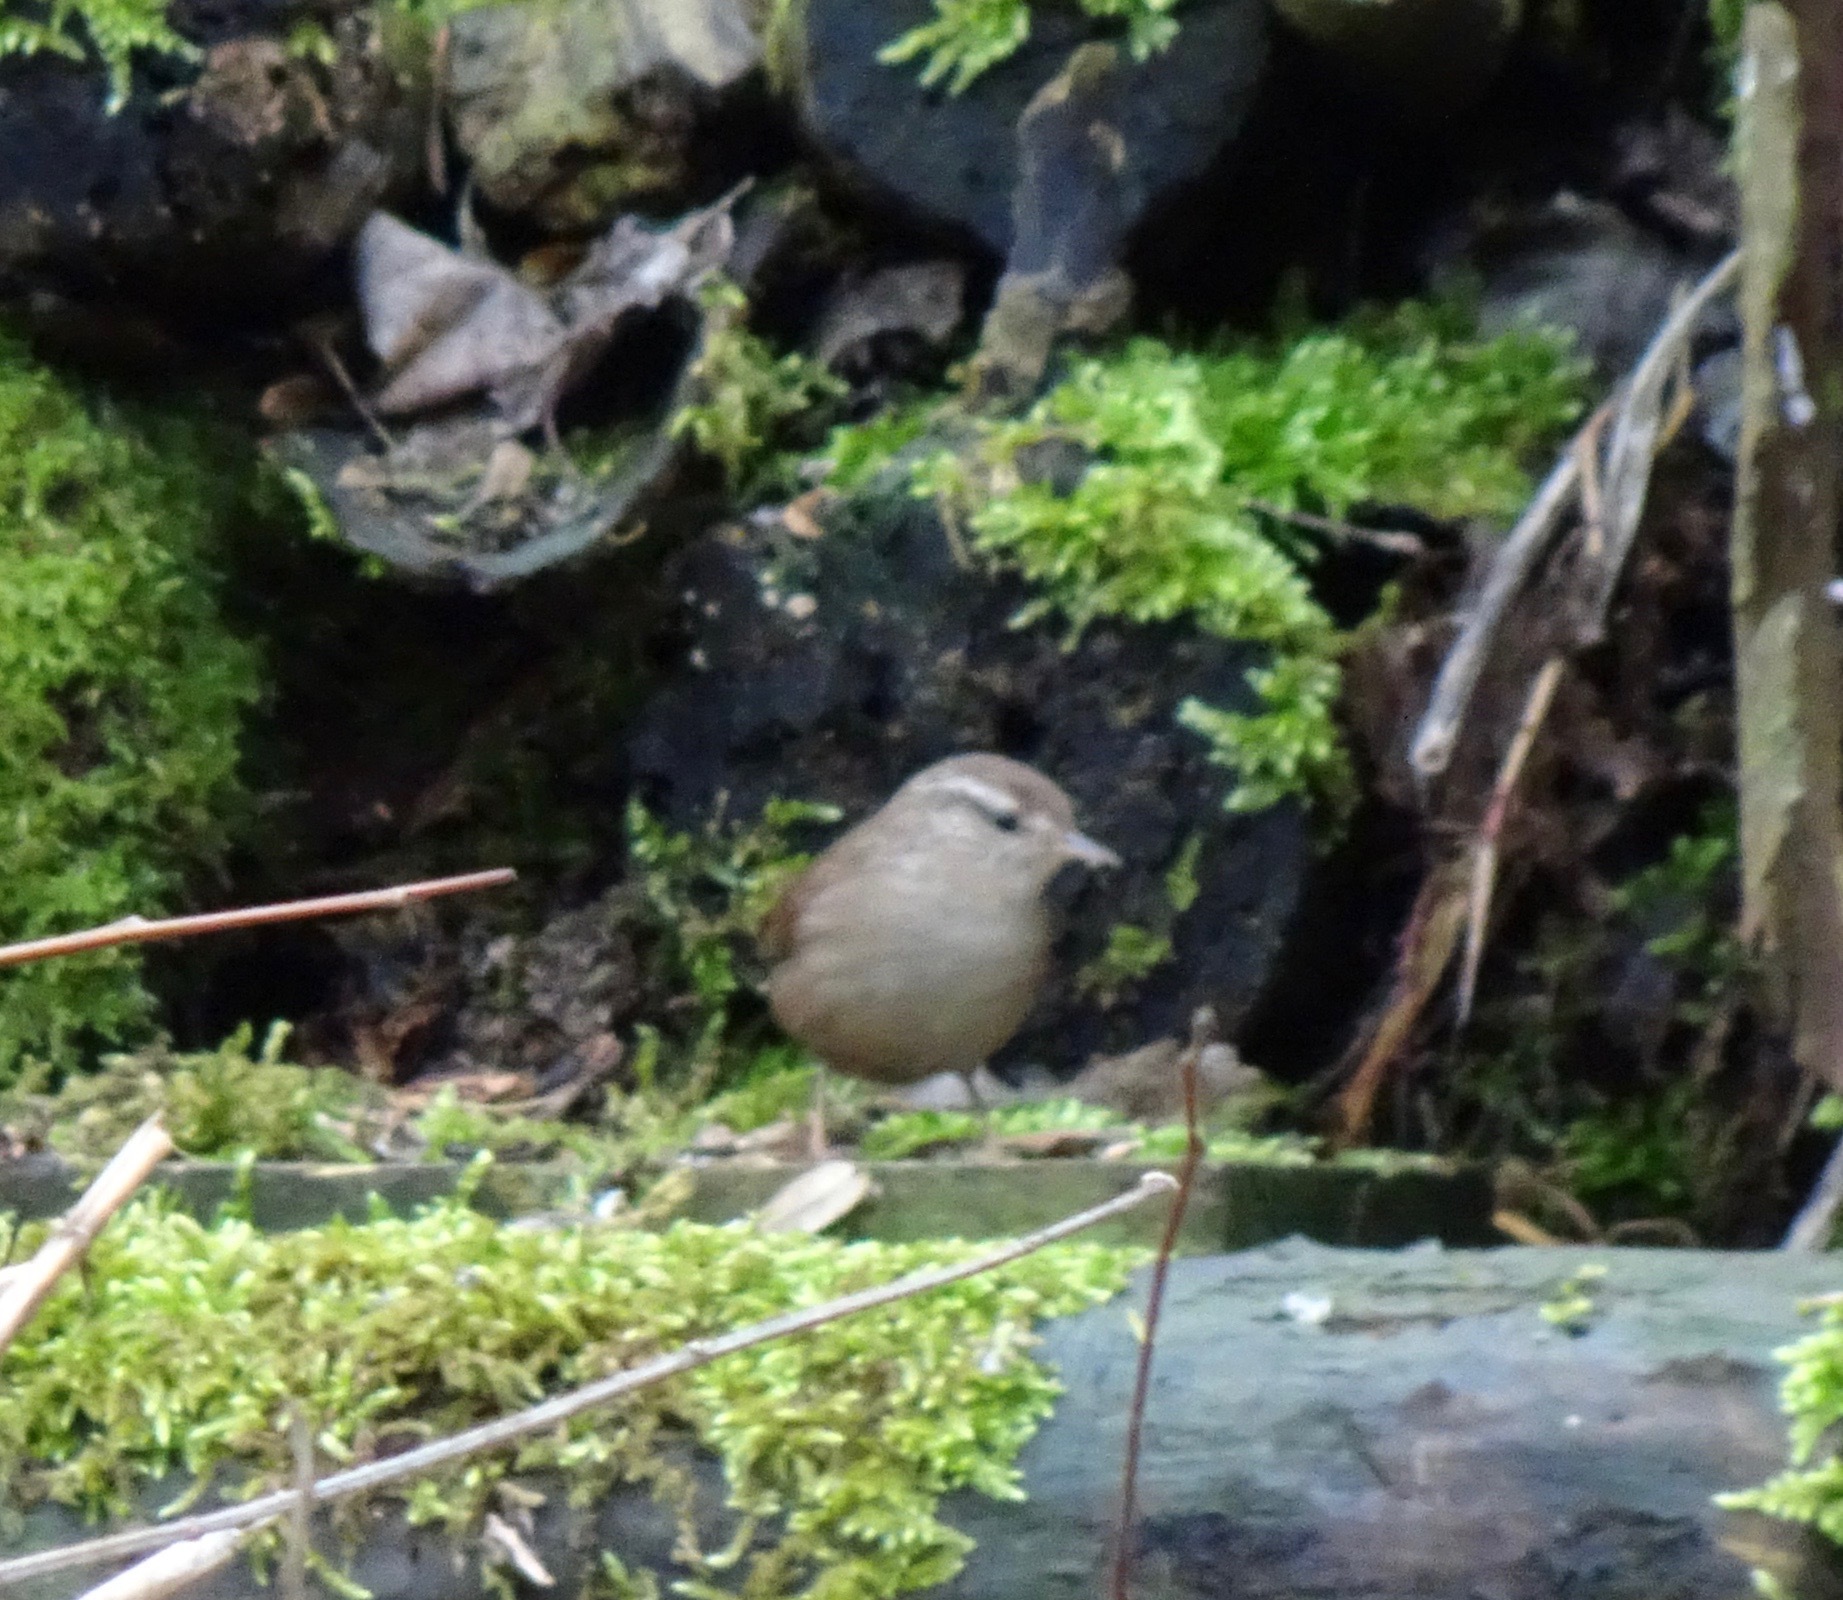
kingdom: Animalia
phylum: Chordata
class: Aves
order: Passeriformes
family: Troglodytidae
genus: Troglodytes
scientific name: Troglodytes troglodytes
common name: Eurasian wren
